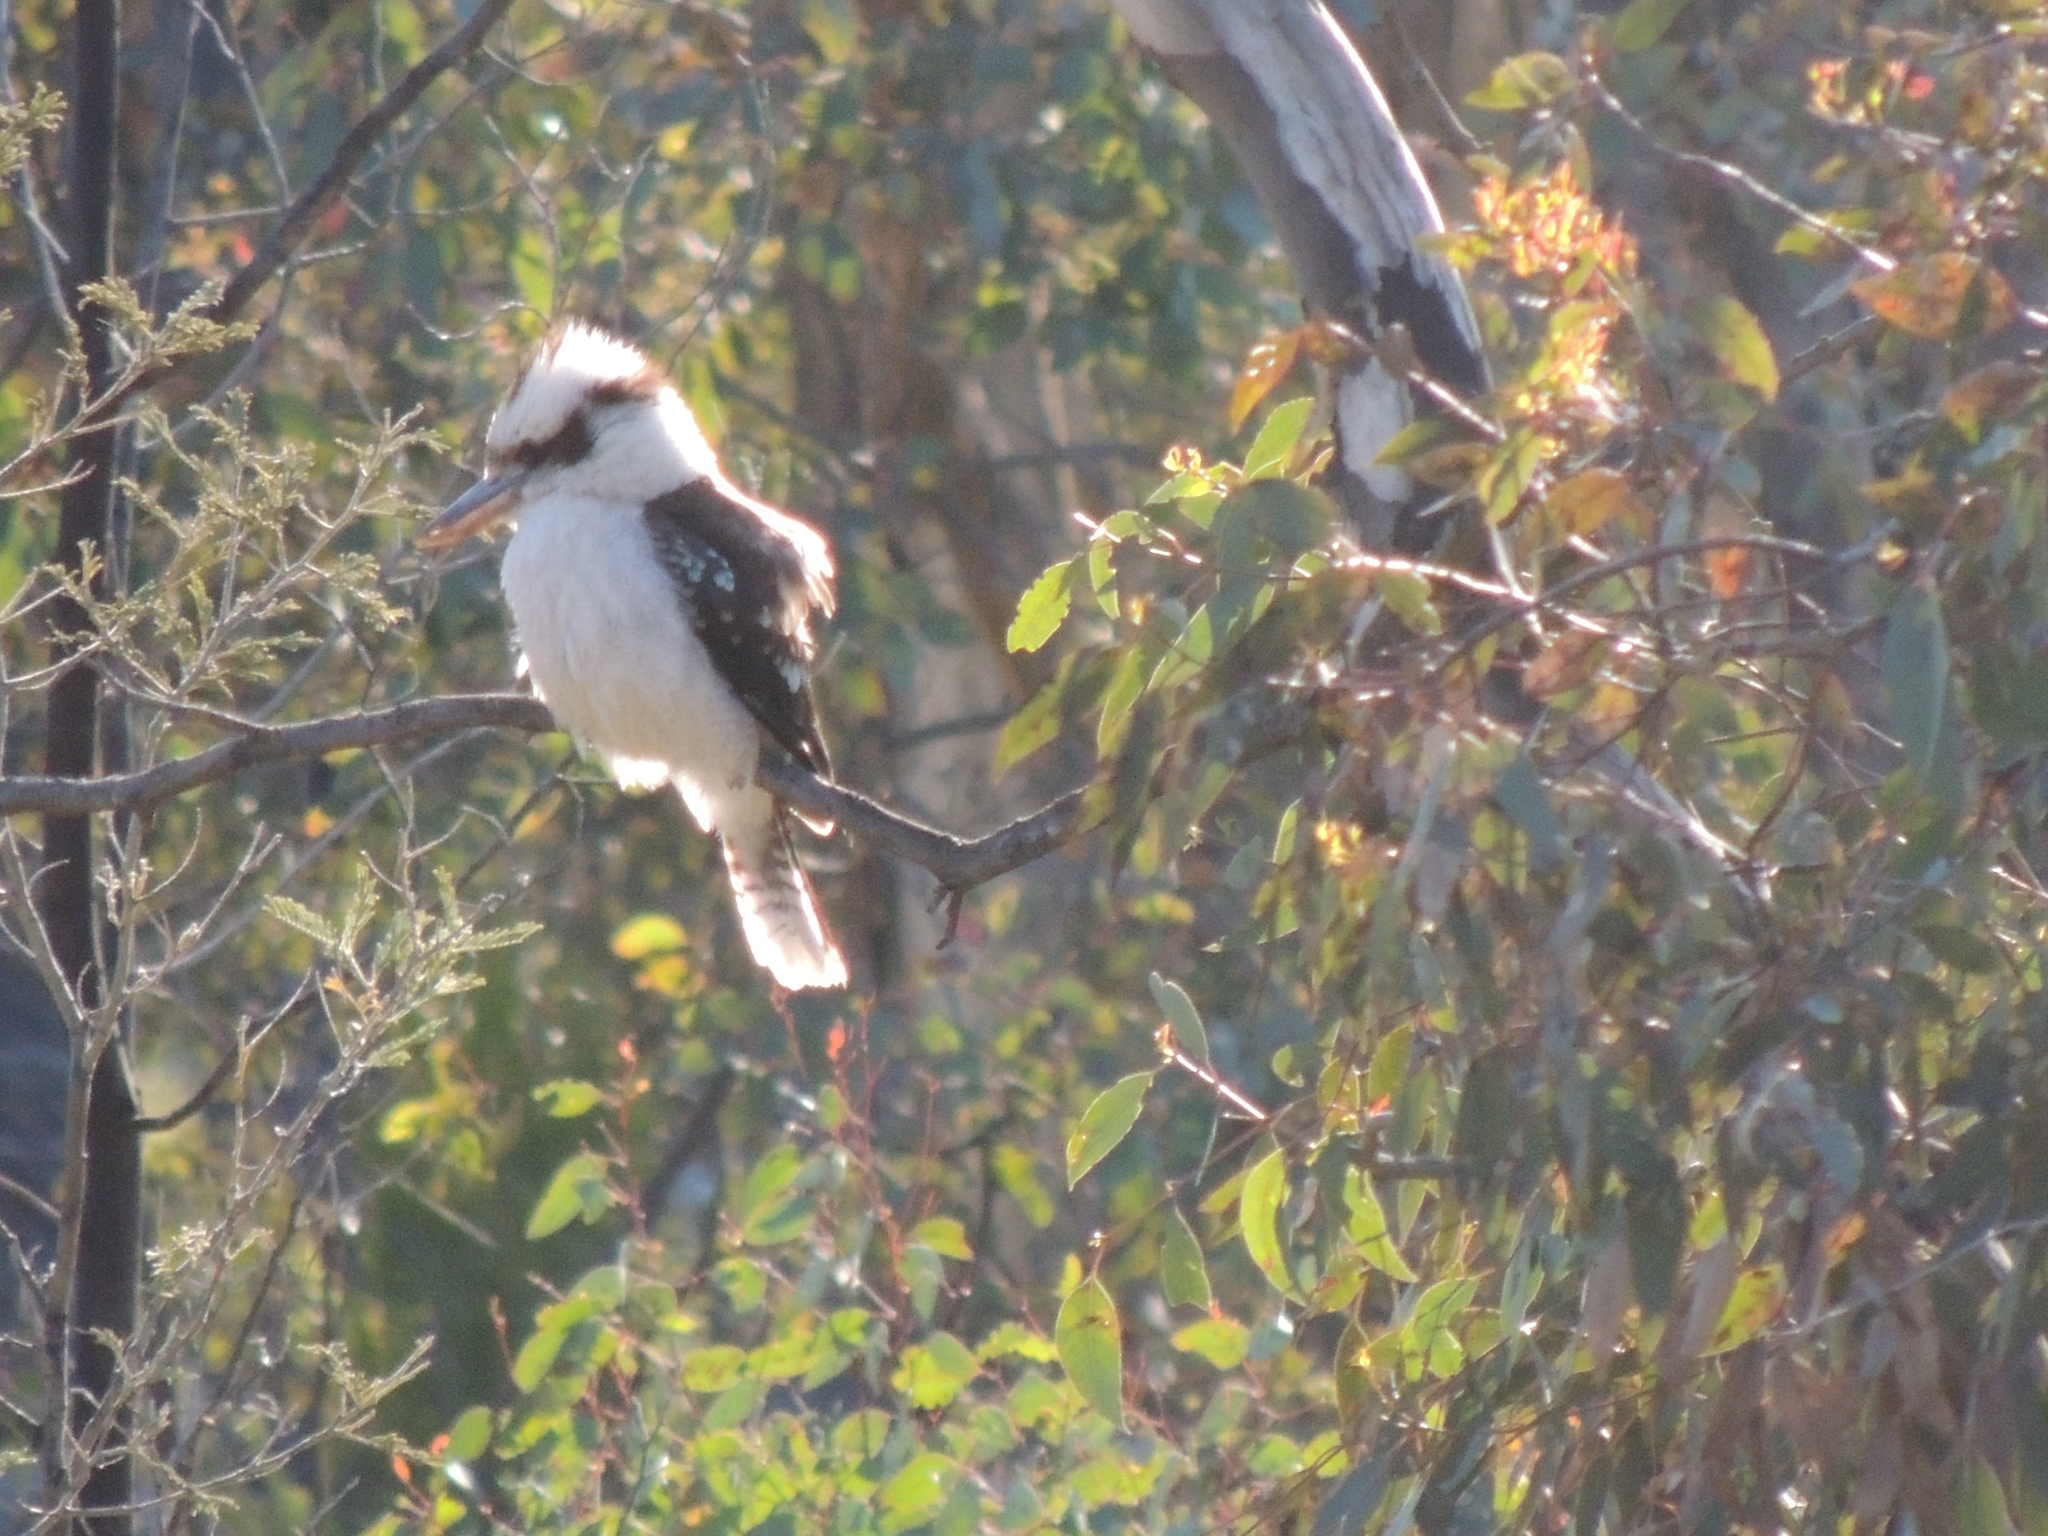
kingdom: Animalia
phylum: Chordata
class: Aves
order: Coraciiformes
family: Alcedinidae
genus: Dacelo
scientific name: Dacelo novaeguineae
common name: Laughing kookaburra
